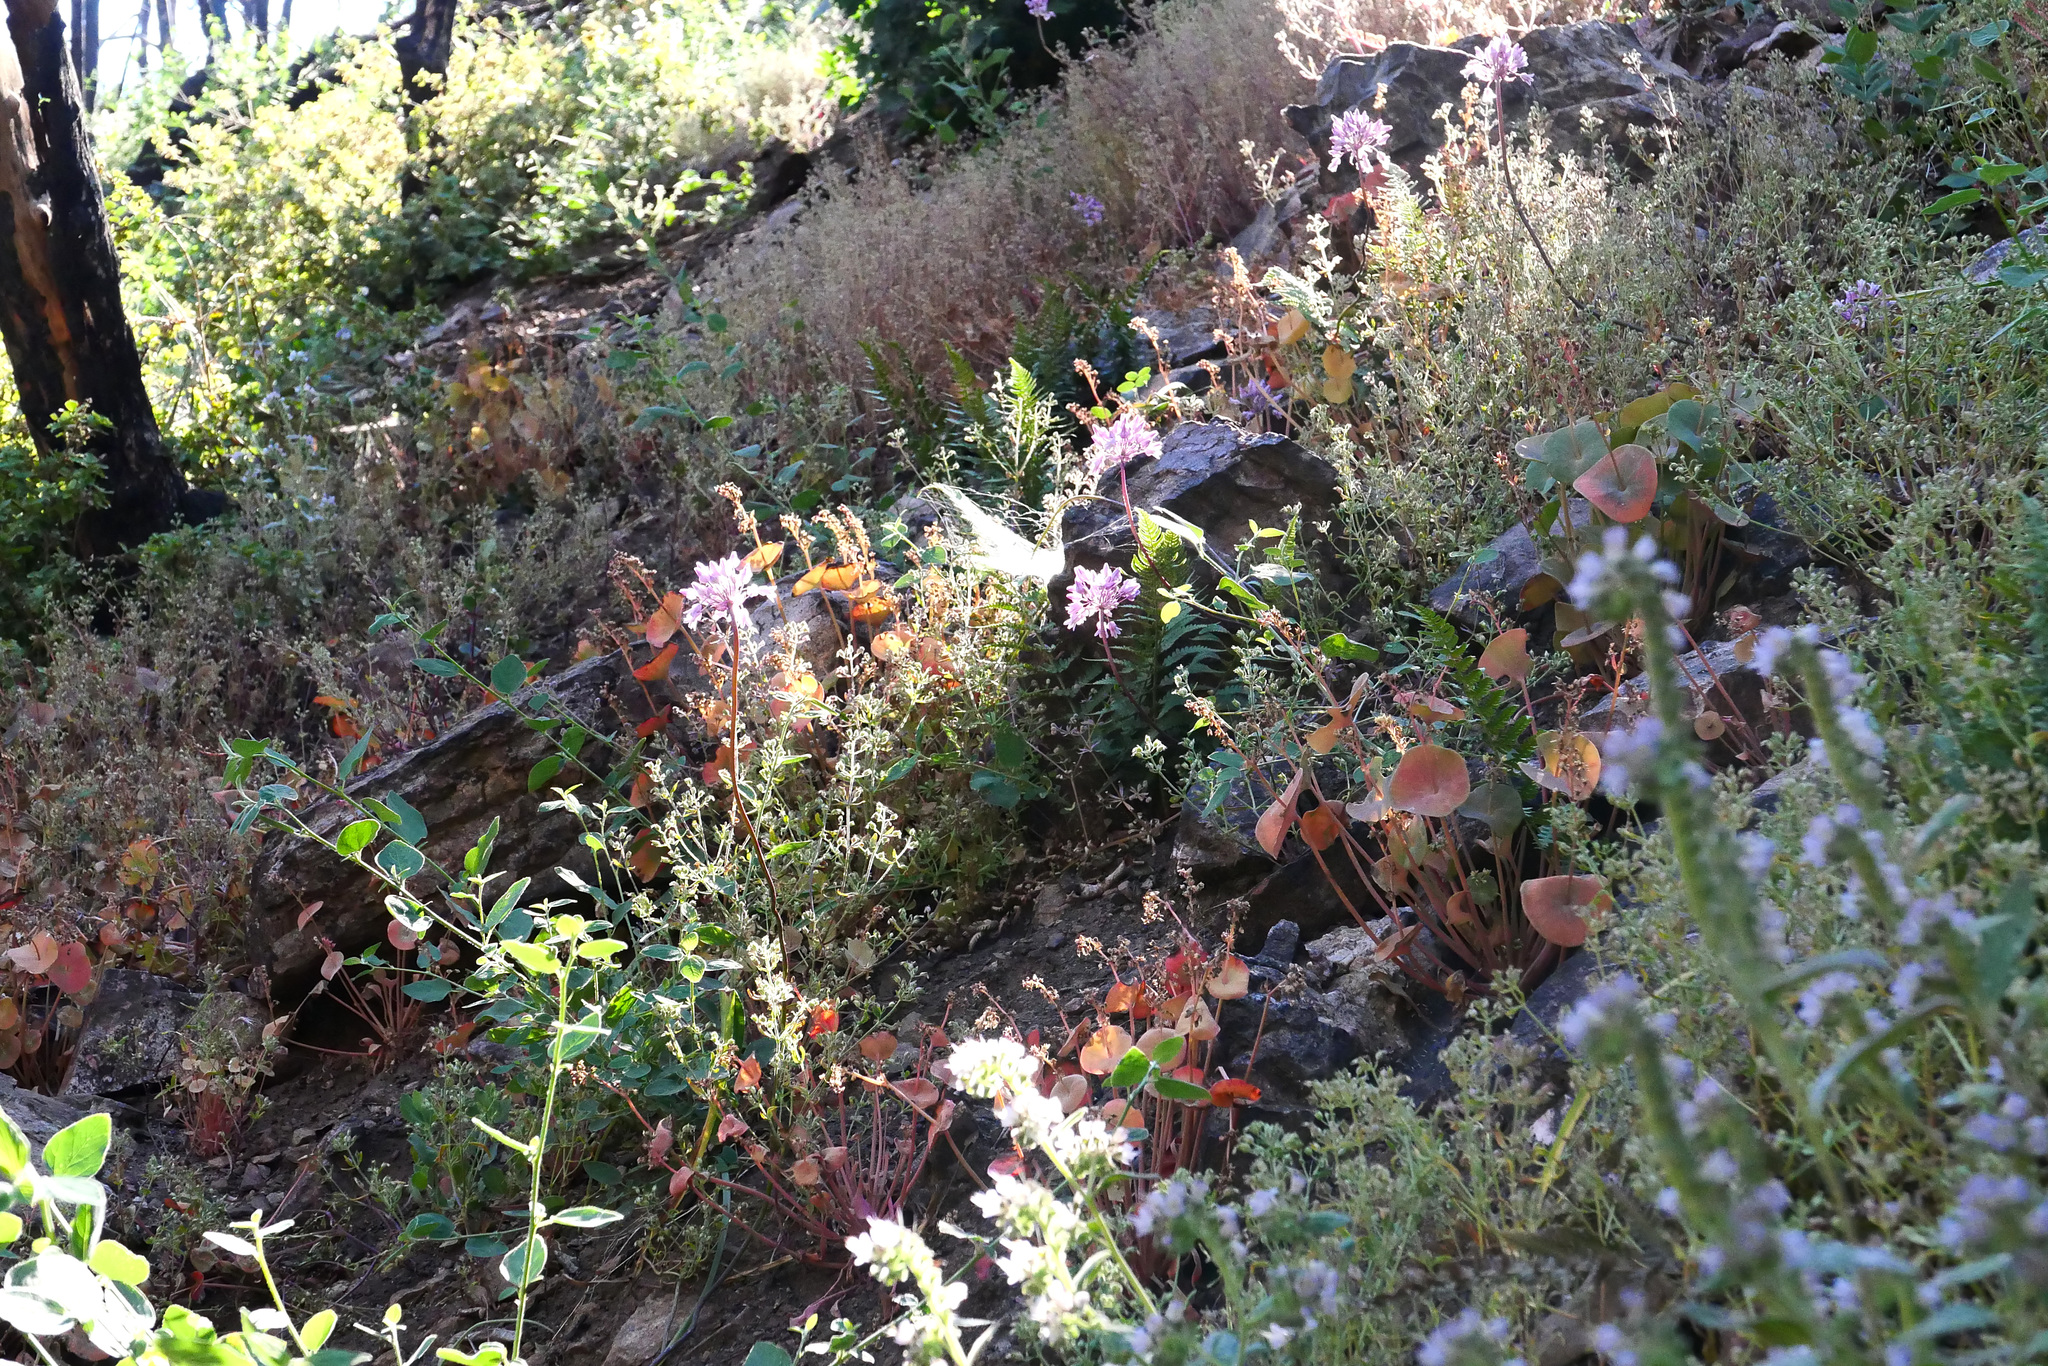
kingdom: Plantae
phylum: Tracheophyta
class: Liliopsida
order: Asparagales
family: Asparagaceae
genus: Dichelostemma
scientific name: Dichelostemma volubile
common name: Trining brodiaea
